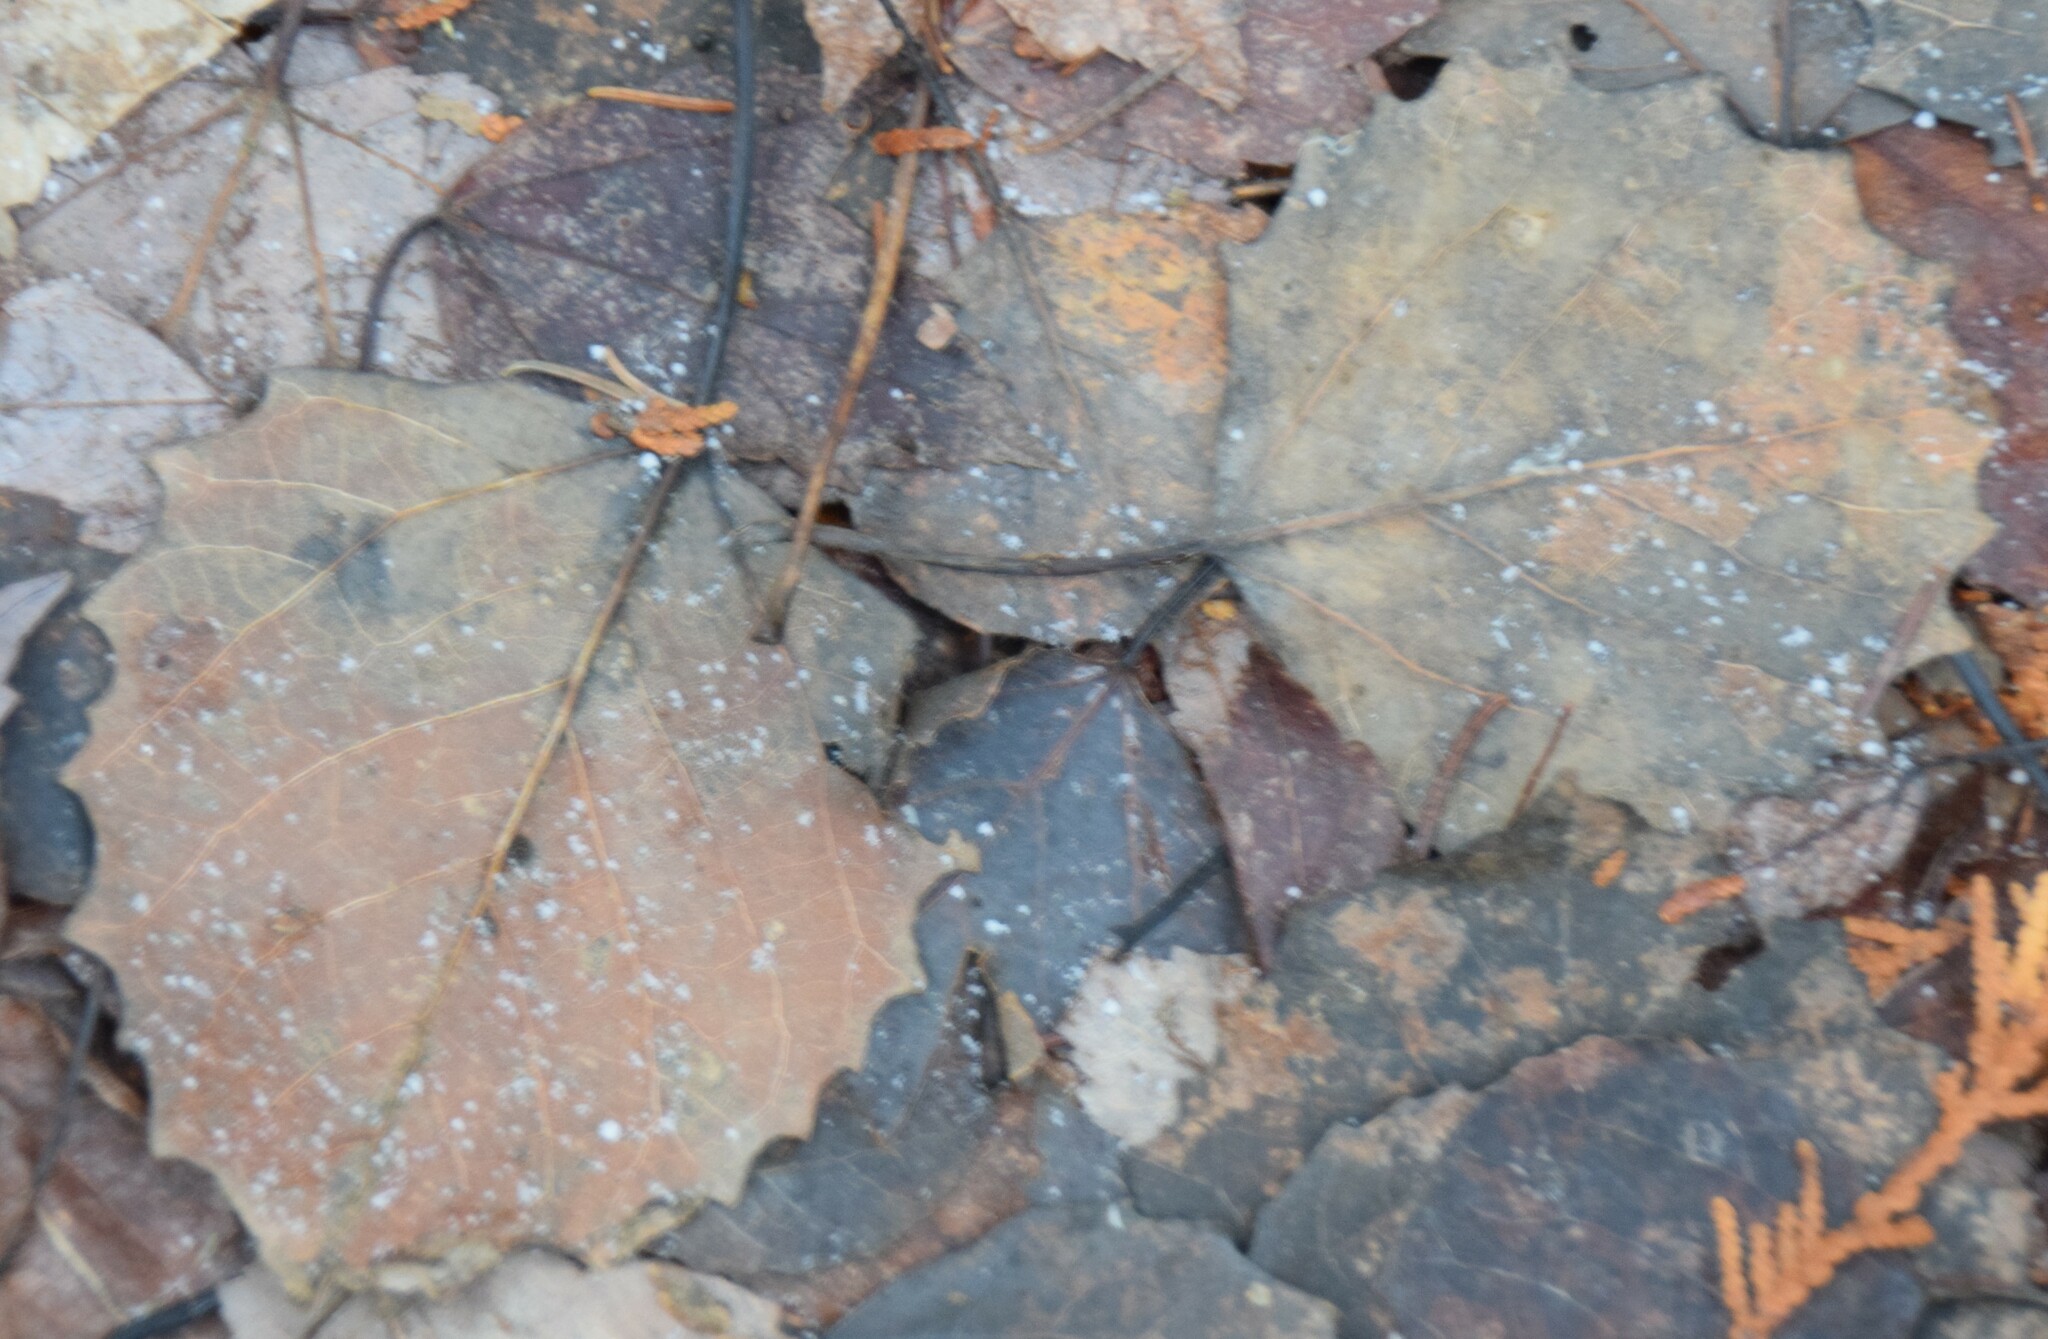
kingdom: Plantae
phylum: Tracheophyta
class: Magnoliopsida
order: Malpighiales
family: Salicaceae
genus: Populus
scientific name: Populus grandidentata
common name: Bigtooth aspen
